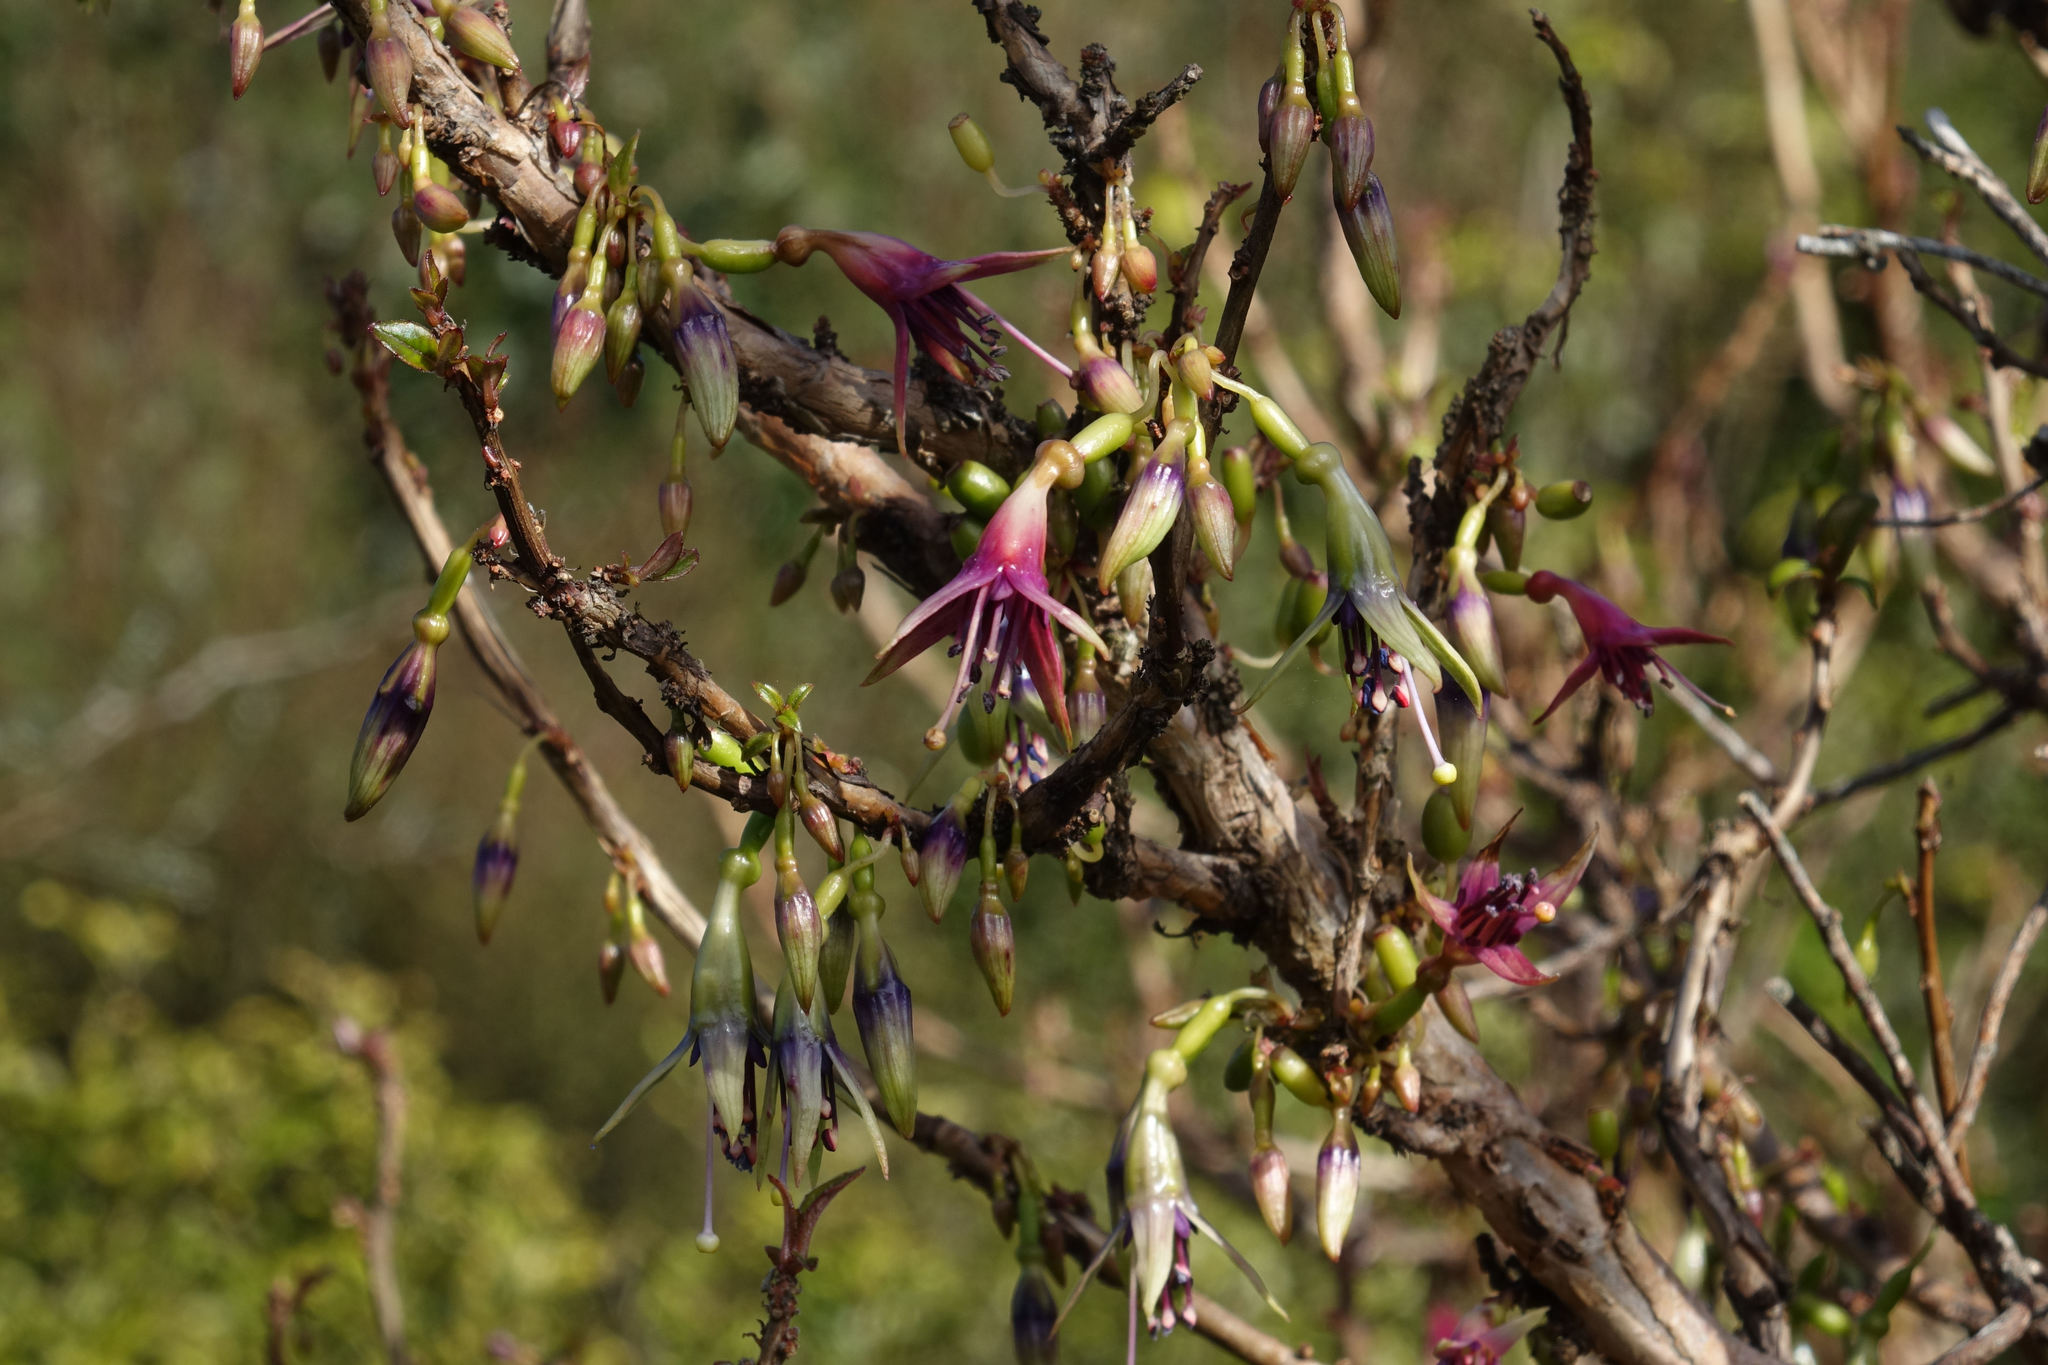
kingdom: Plantae
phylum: Tracheophyta
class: Magnoliopsida
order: Myrtales
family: Onagraceae
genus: Fuchsia
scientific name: Fuchsia excorticata
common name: Tree fuchsia
